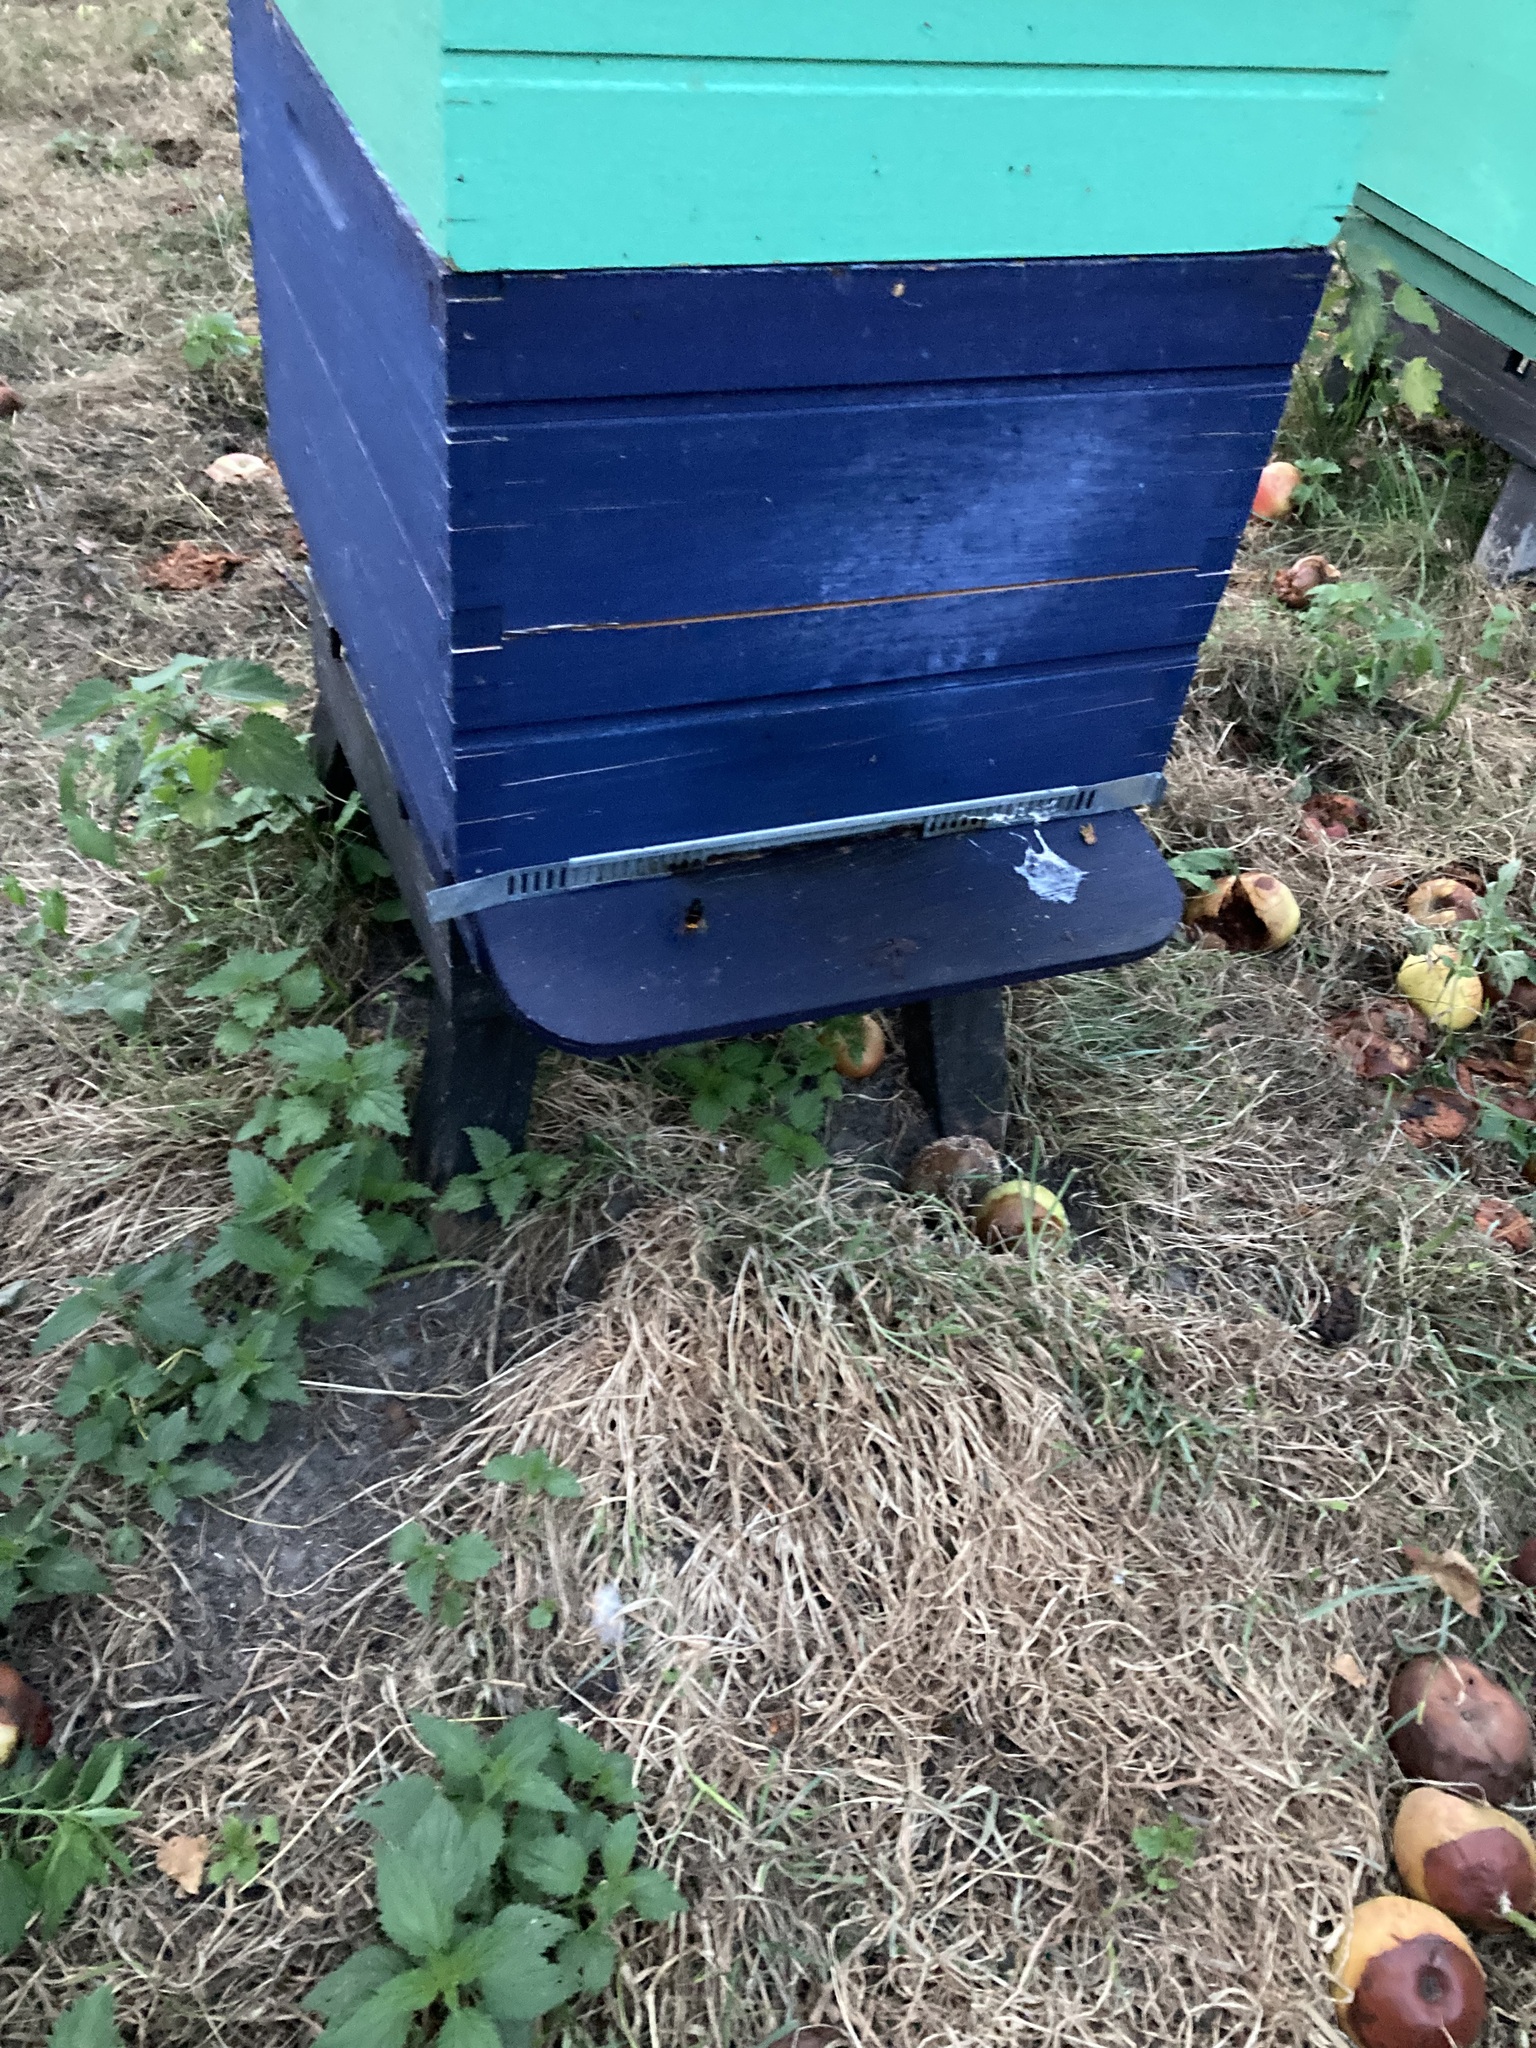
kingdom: Animalia
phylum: Arthropoda
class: Insecta
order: Hymenoptera
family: Vespidae
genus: Vespa
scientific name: Vespa velutina
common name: Asian hornet
